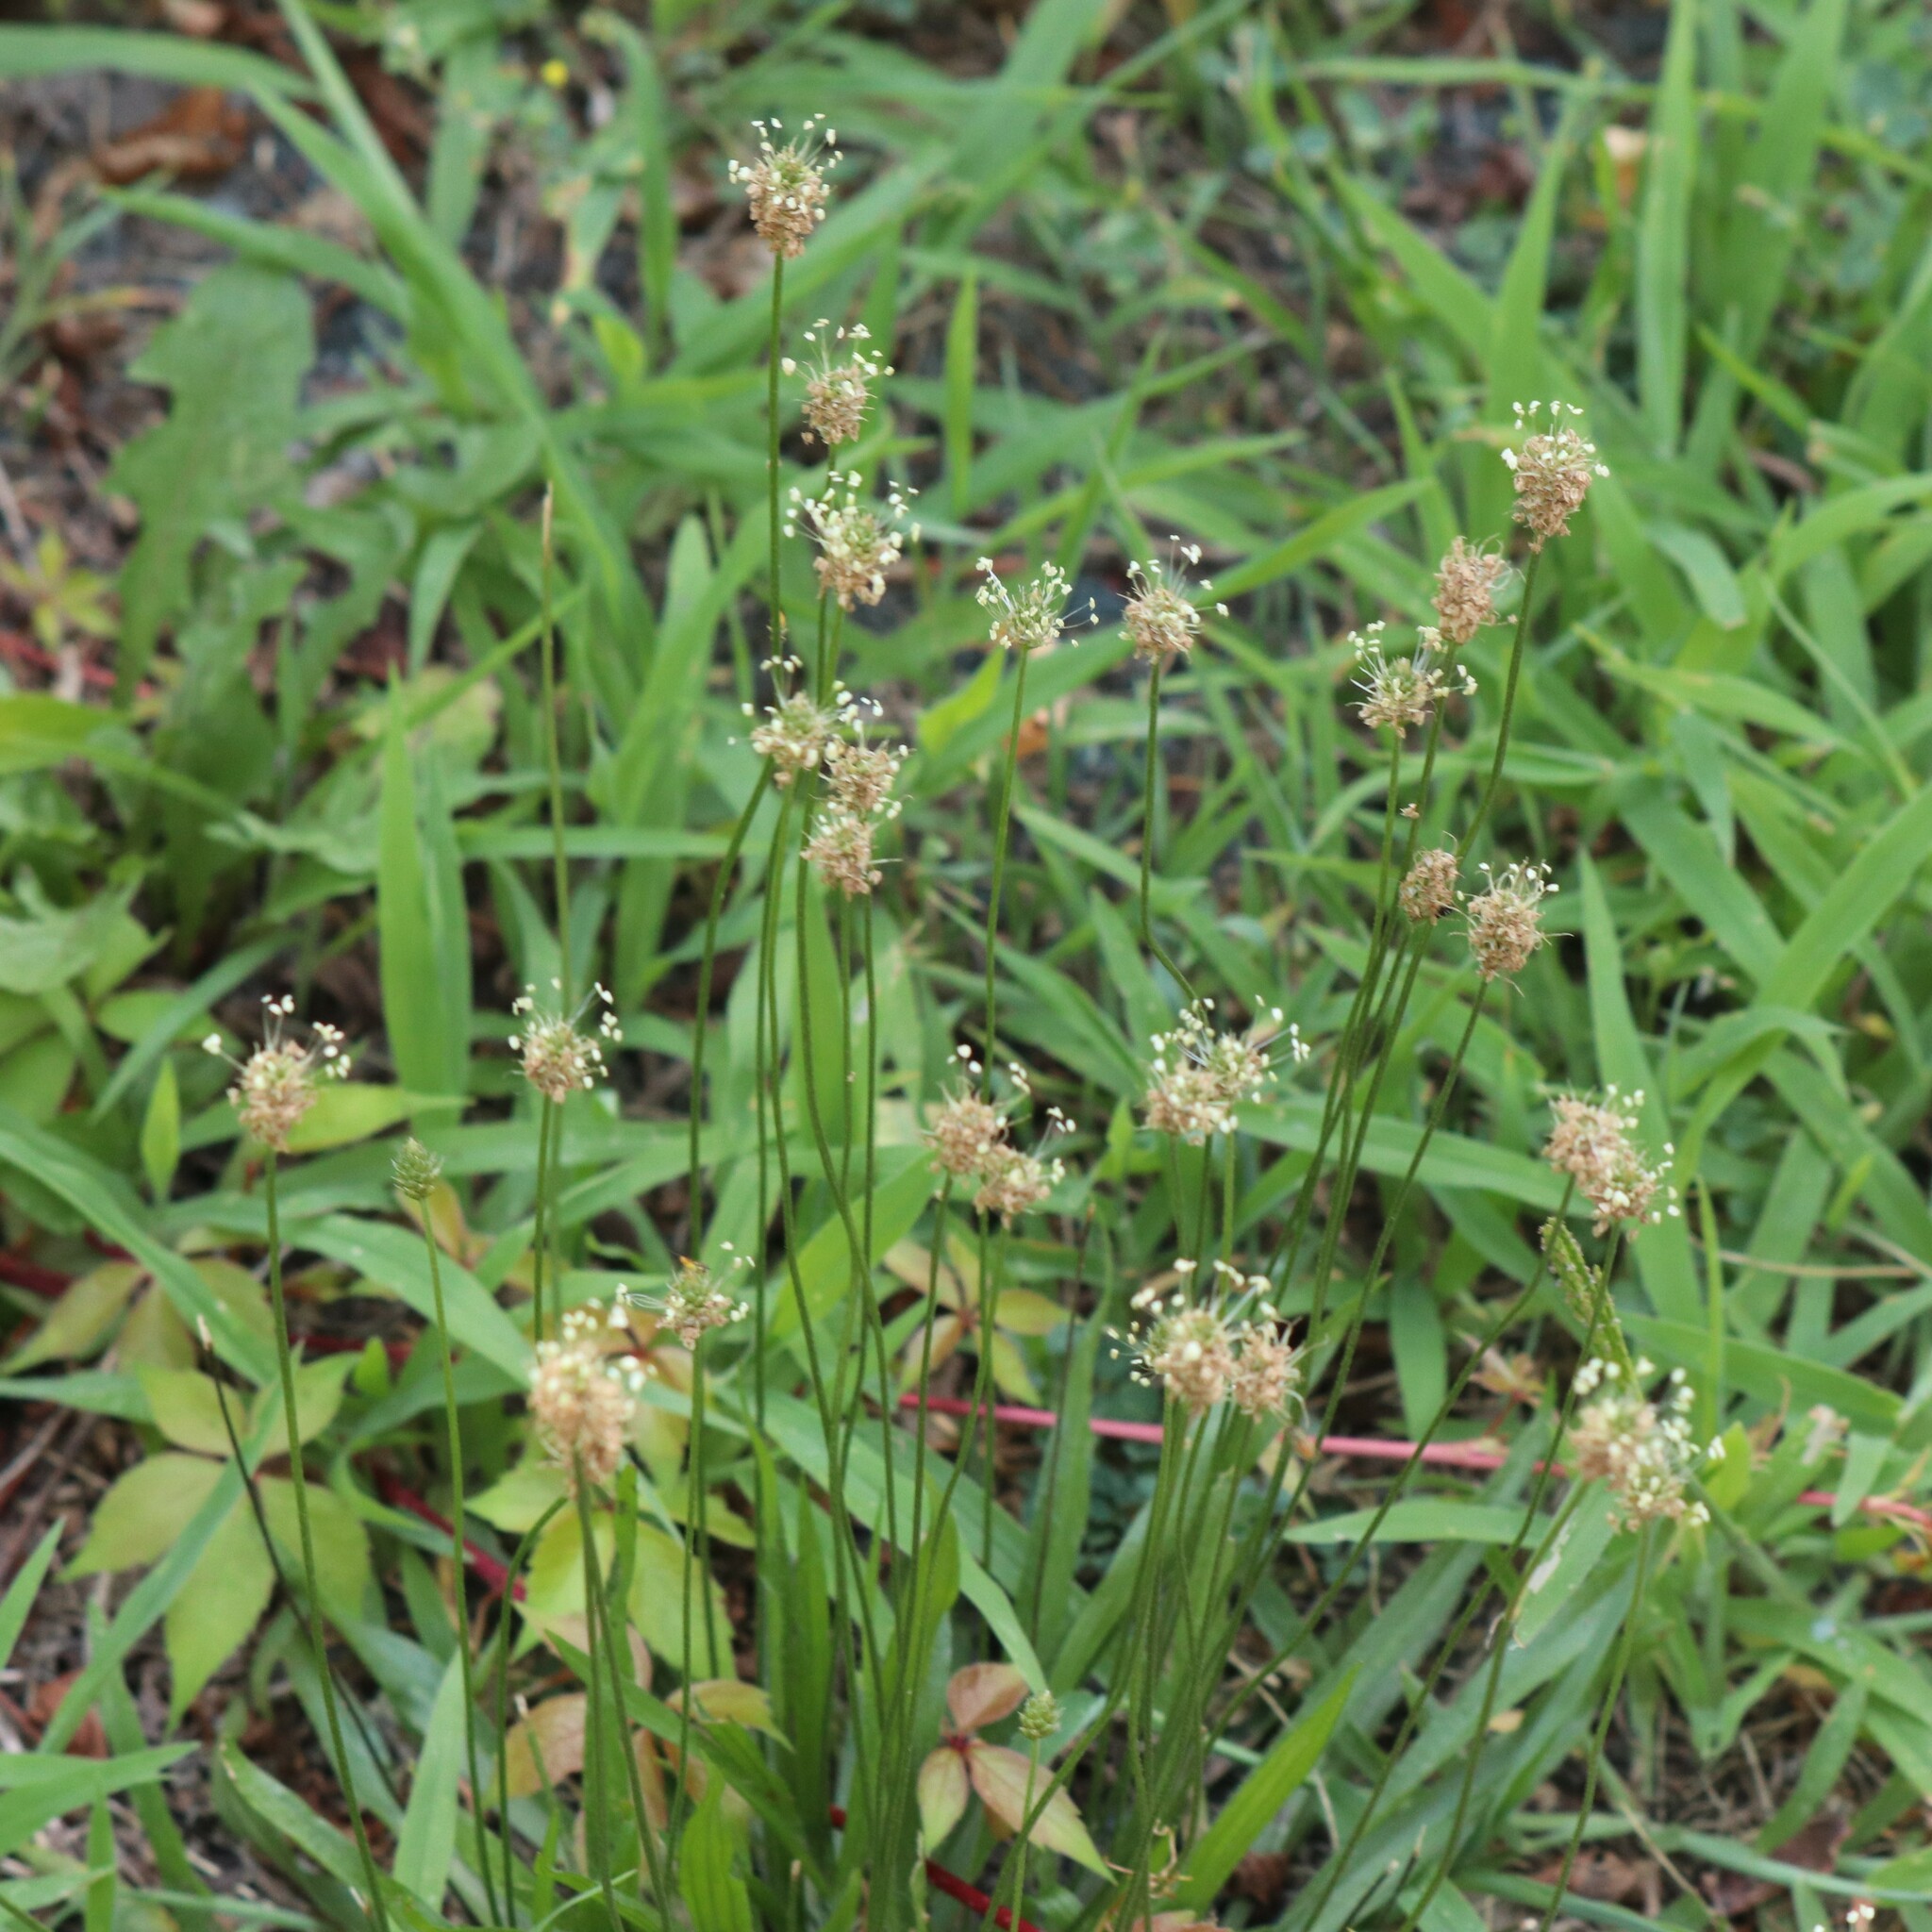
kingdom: Plantae
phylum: Tracheophyta
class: Magnoliopsida
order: Lamiales
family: Plantaginaceae
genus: Plantago
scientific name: Plantago lanceolata
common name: Ribwort plantain
